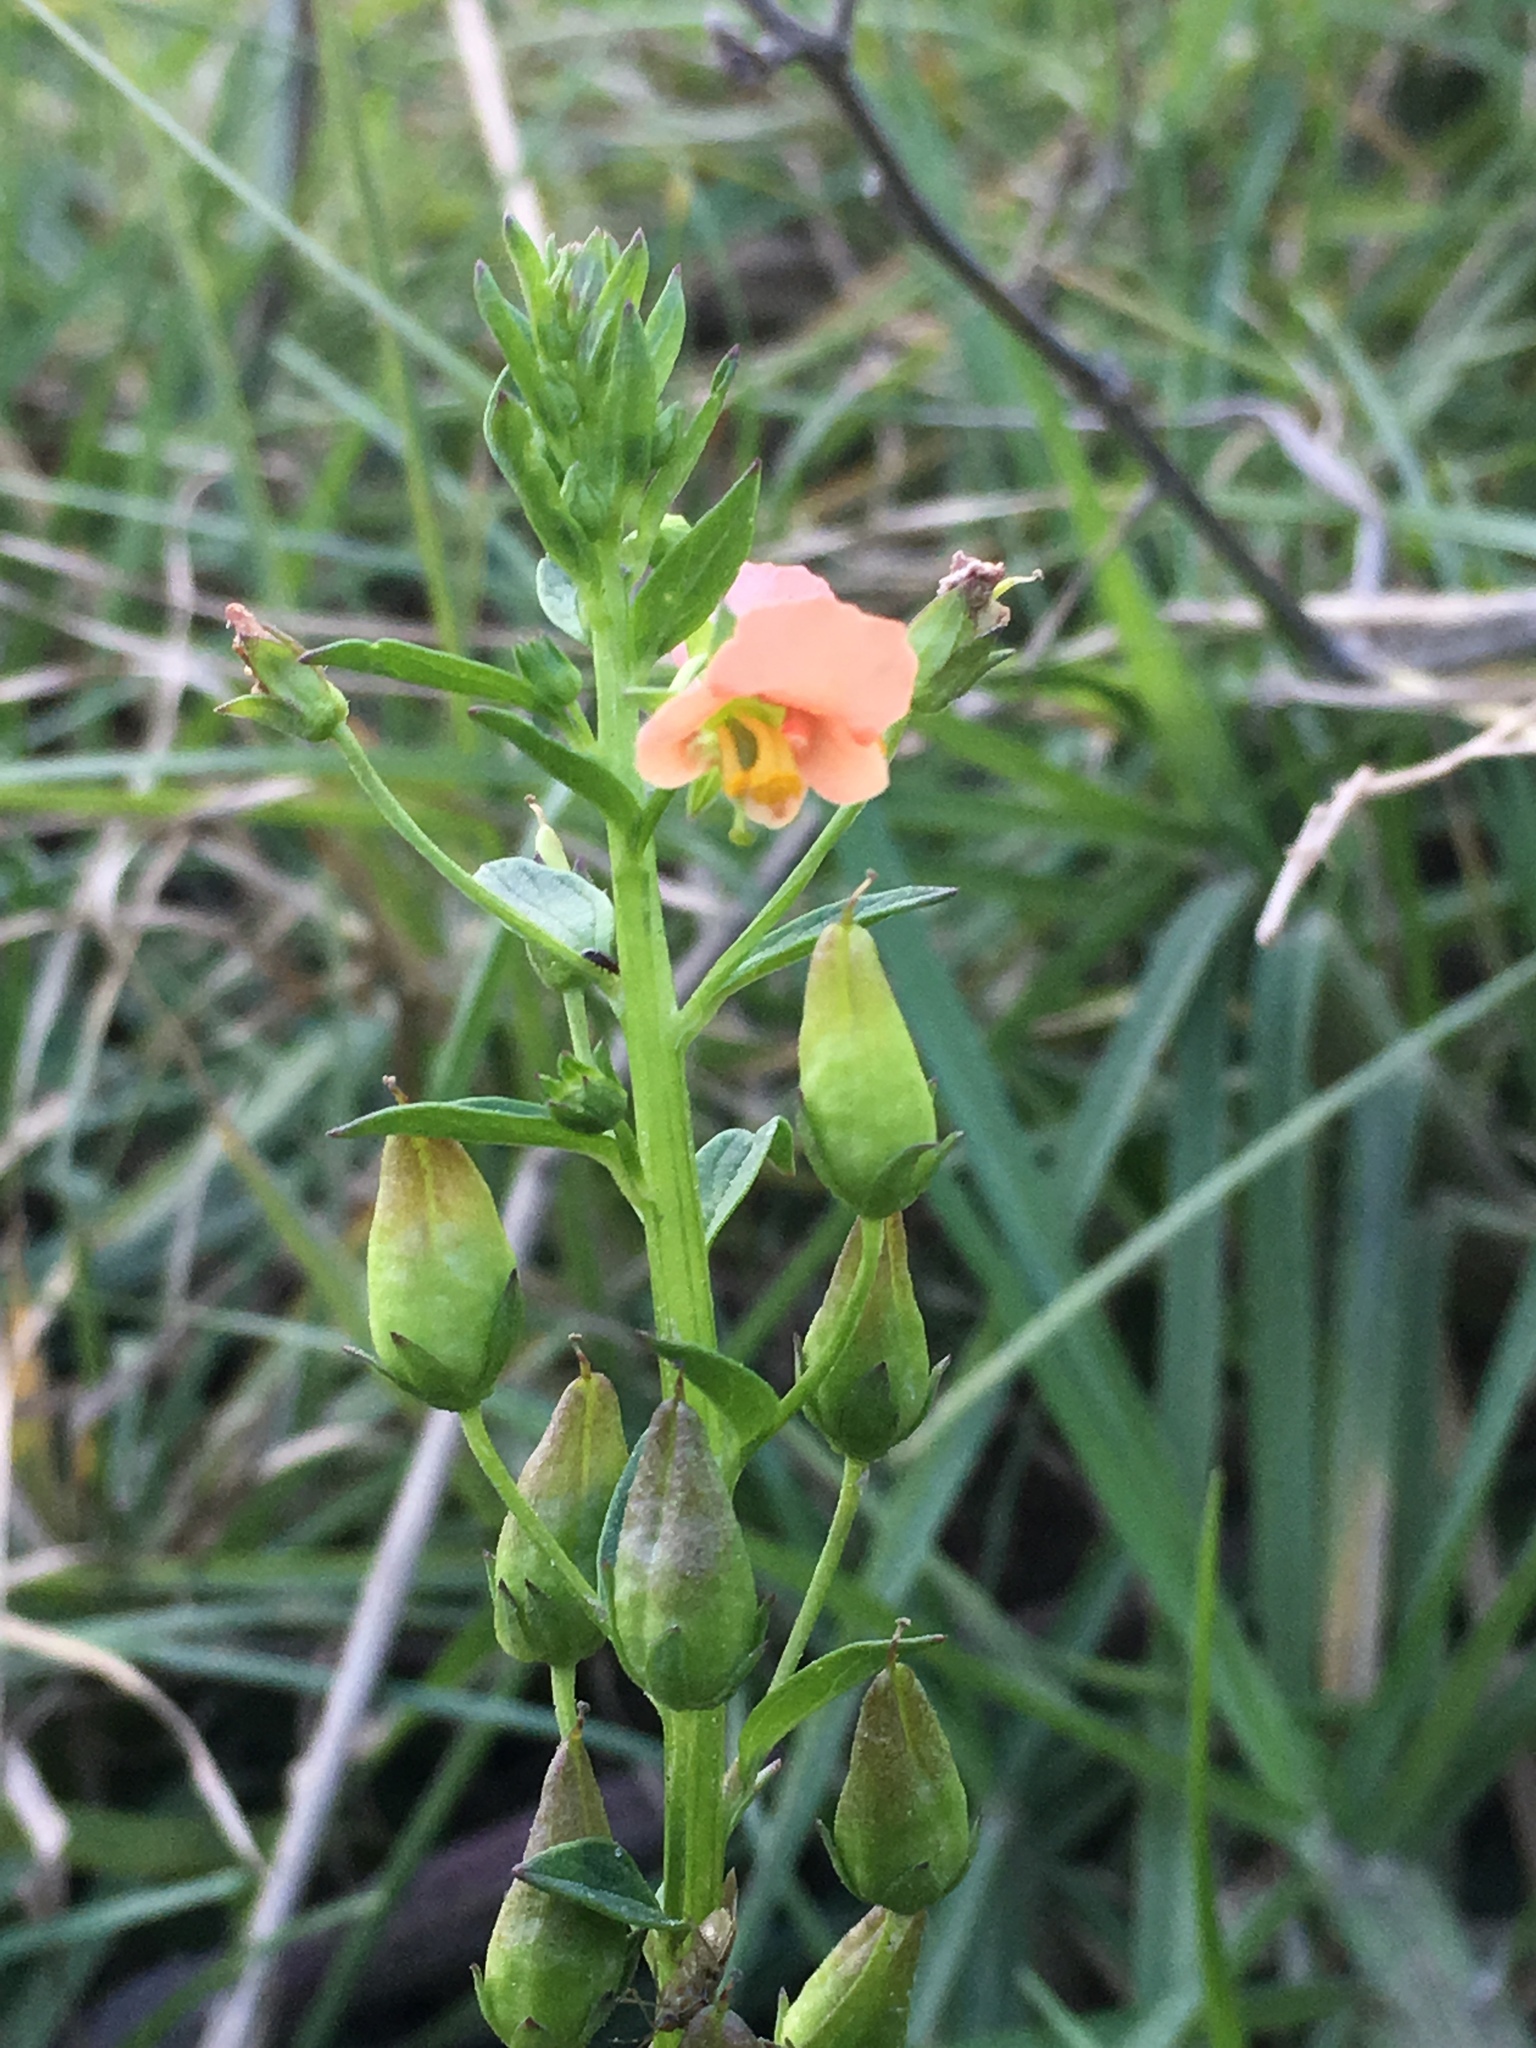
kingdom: Plantae
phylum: Tracheophyta
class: Magnoliopsida
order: Lamiales
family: Scrophulariaceae
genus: Alonsoa
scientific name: Alonsoa meridionalis
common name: Maskflower
